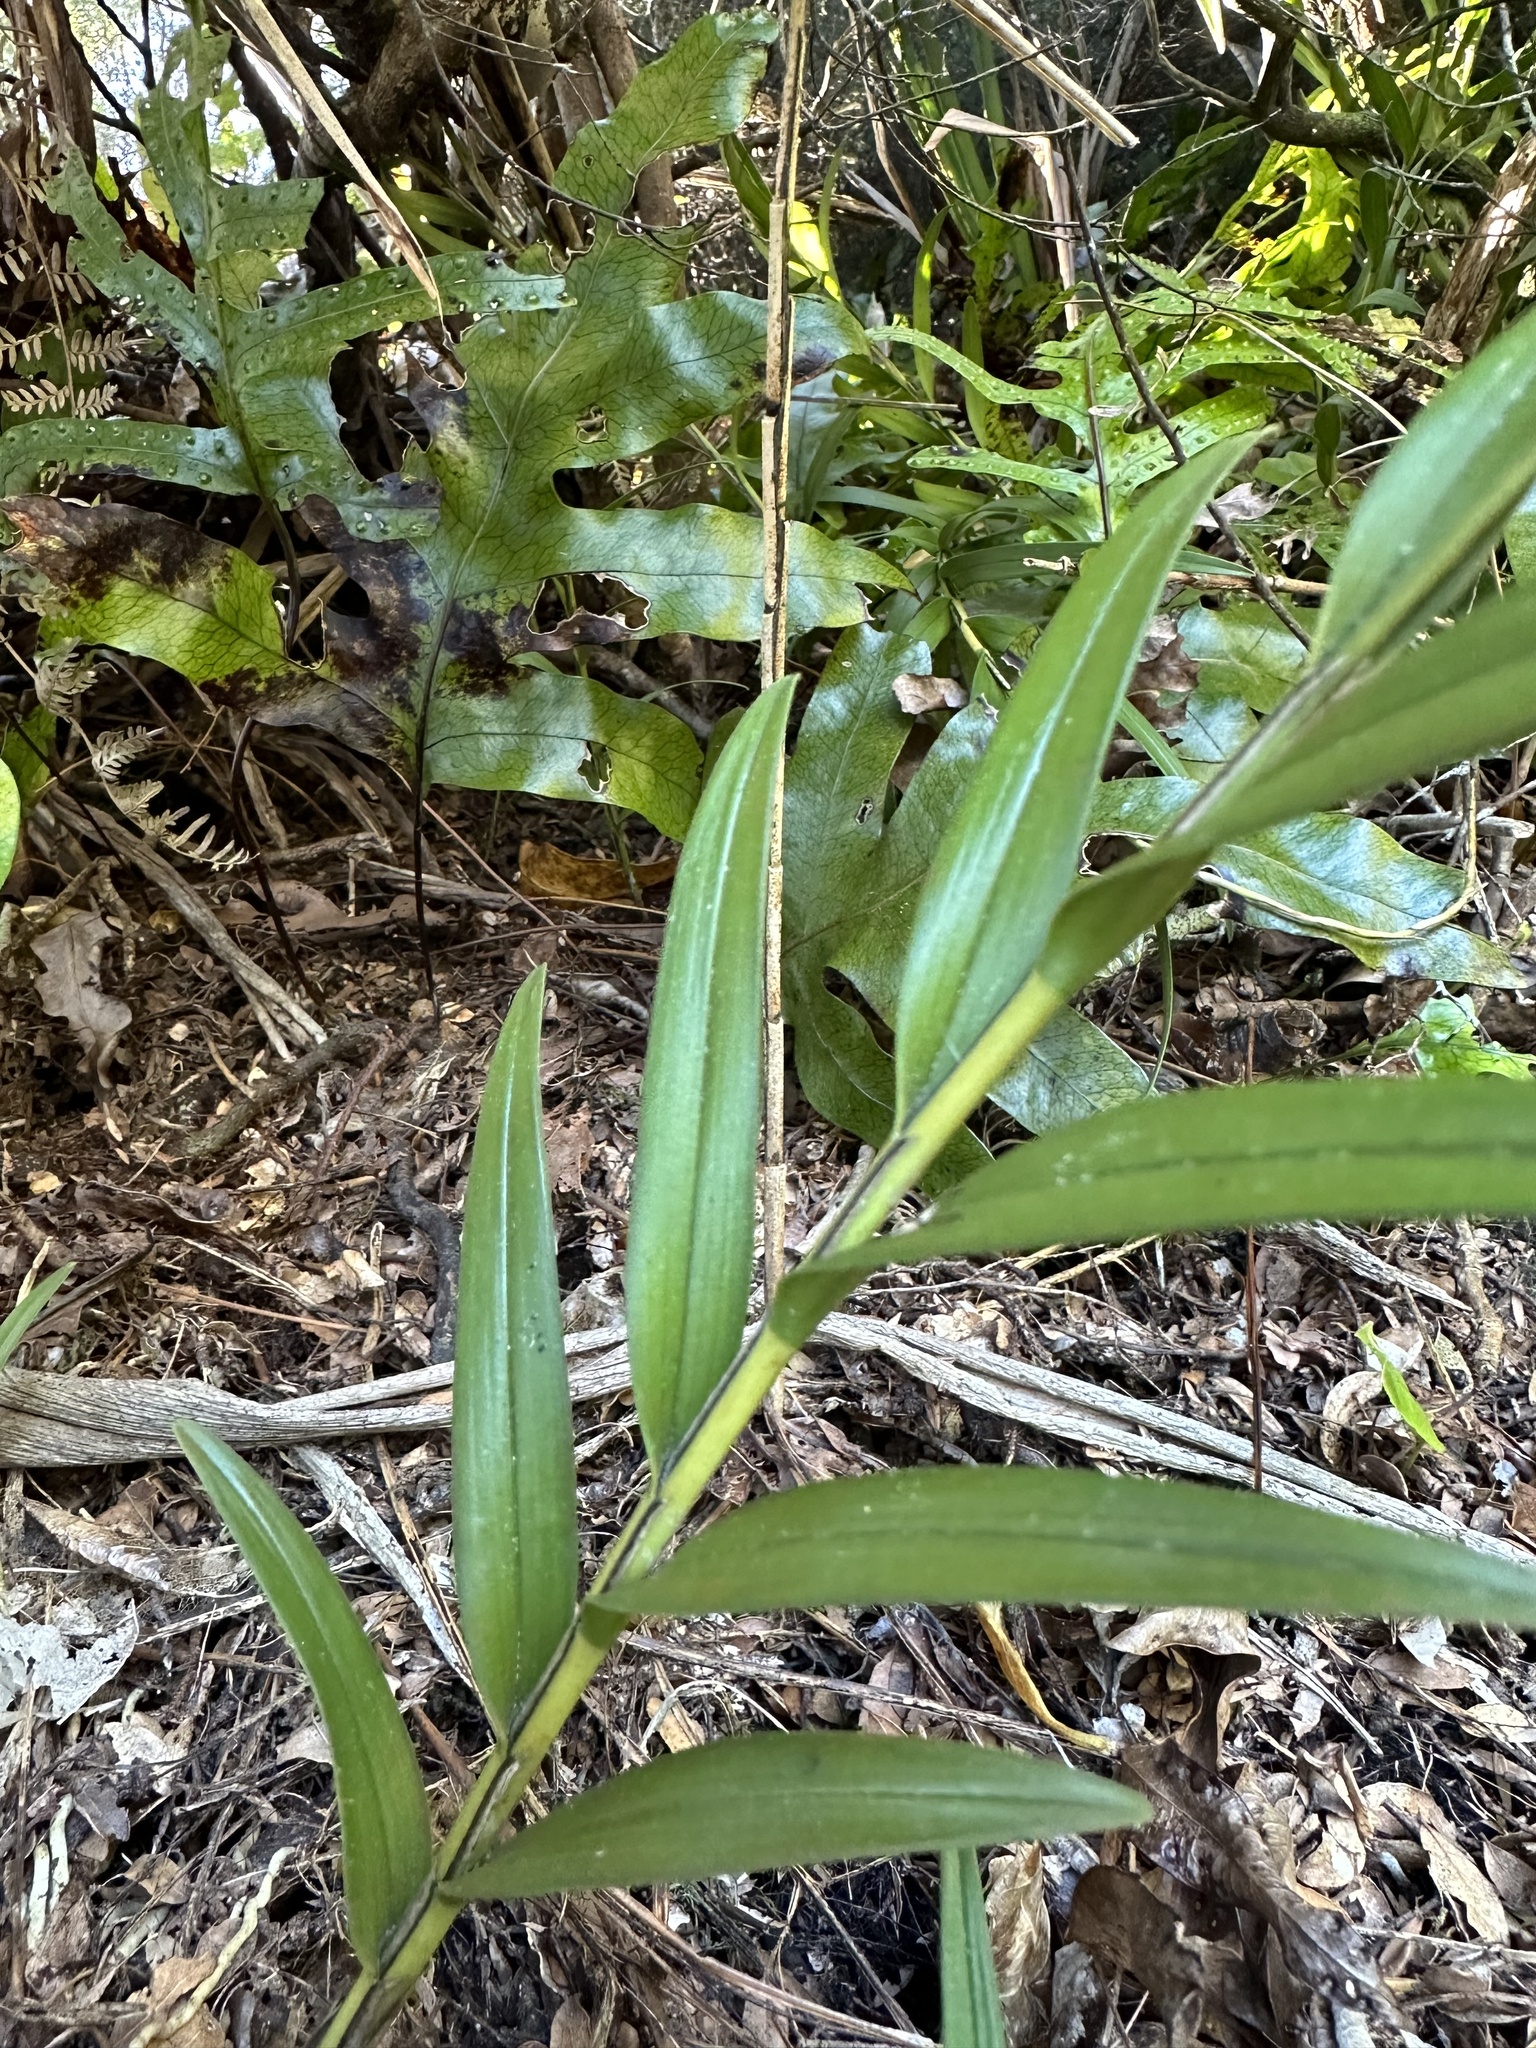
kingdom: Plantae
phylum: Tracheophyta
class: Liliopsida
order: Asparagales
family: Orchidaceae
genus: Earina
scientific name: Earina autumnalis
